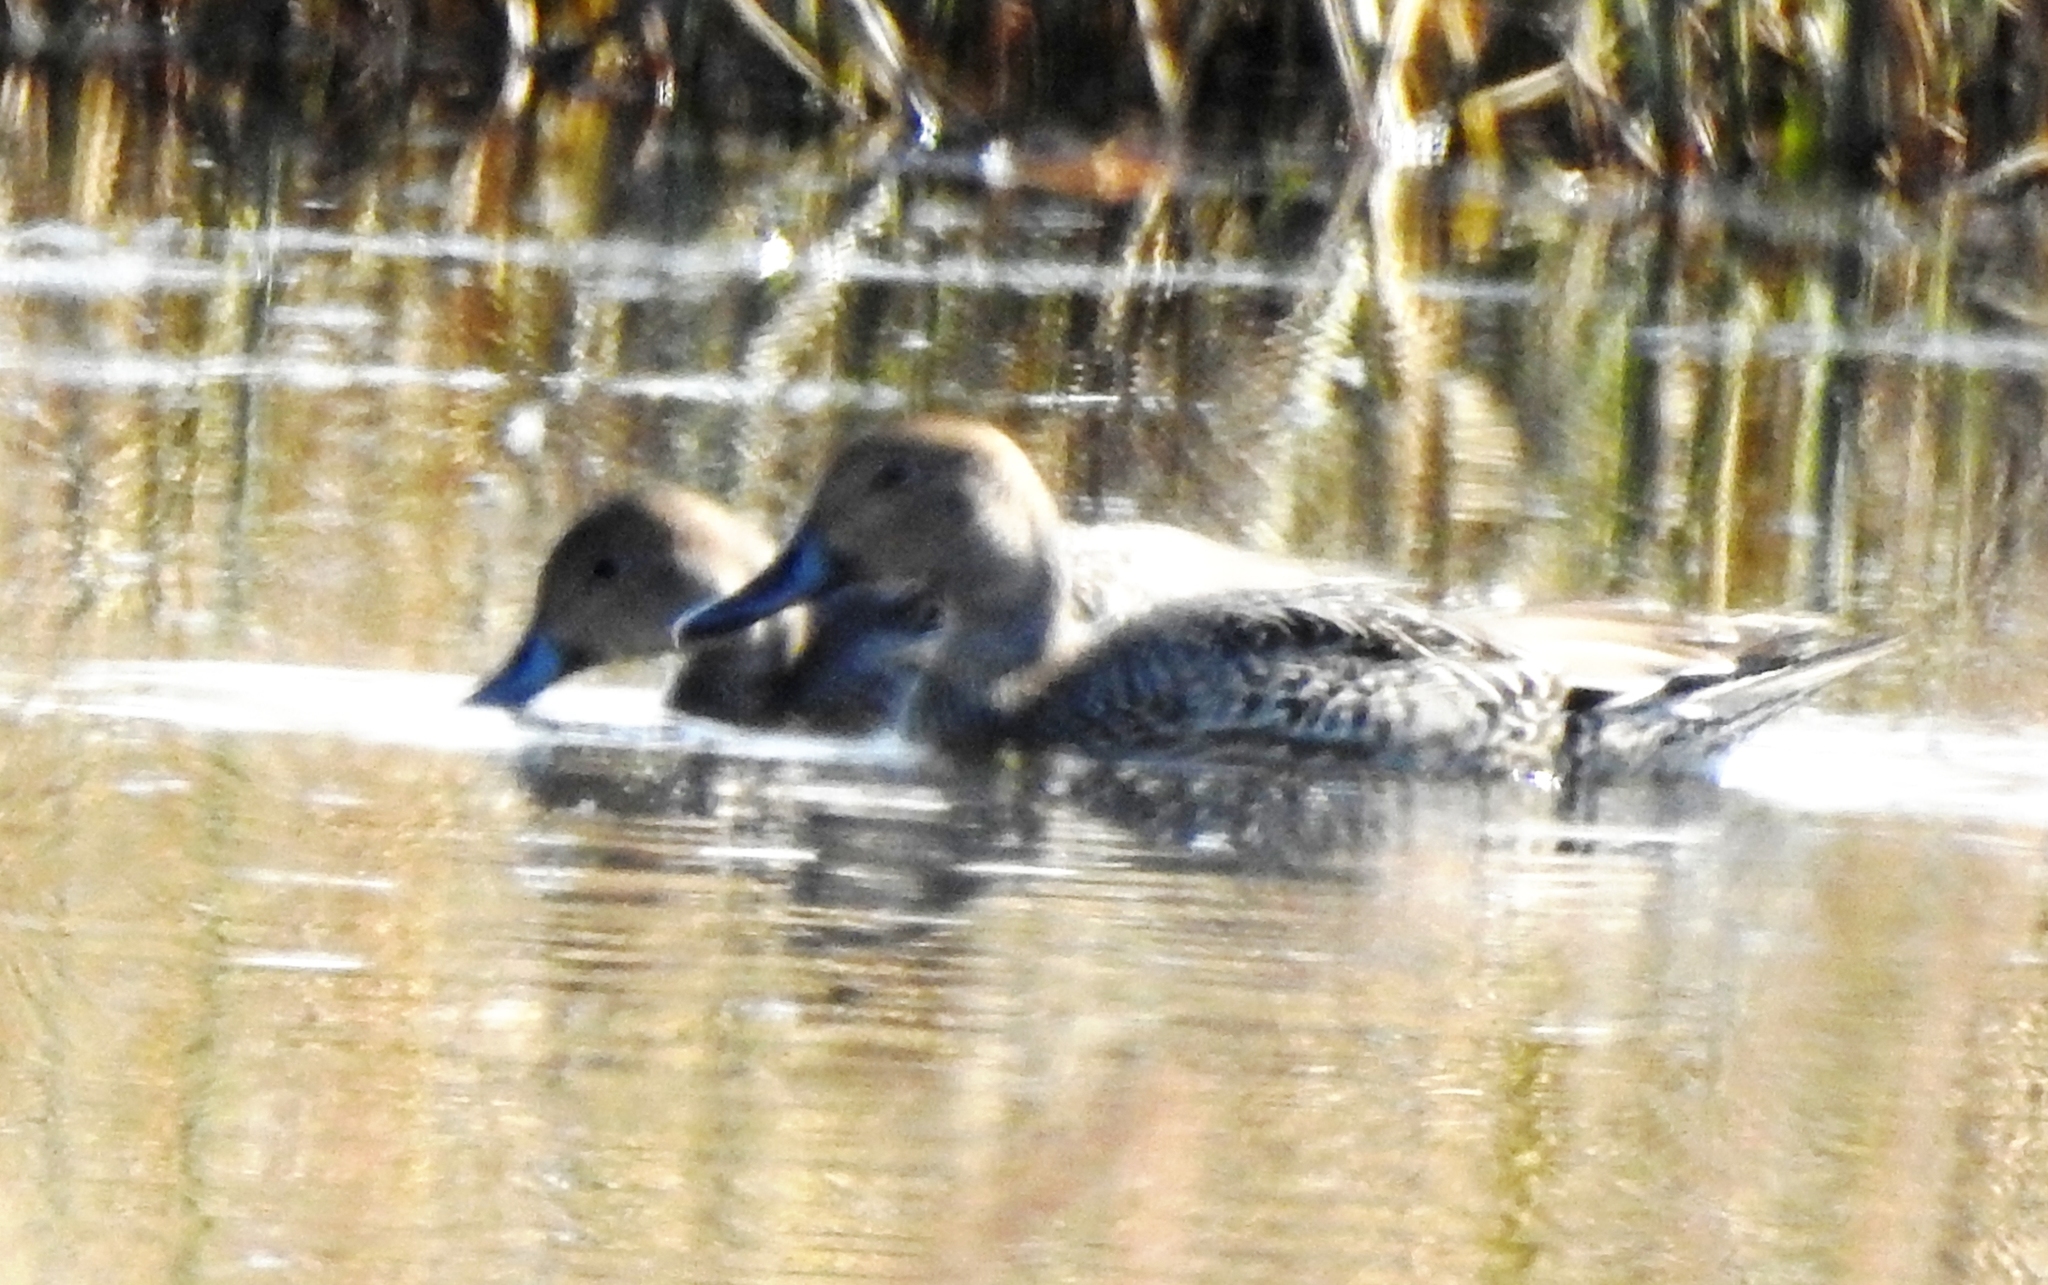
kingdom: Animalia
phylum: Chordata
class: Aves
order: Anseriformes
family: Anatidae
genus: Anas
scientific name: Anas acuta
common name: Northern pintail
